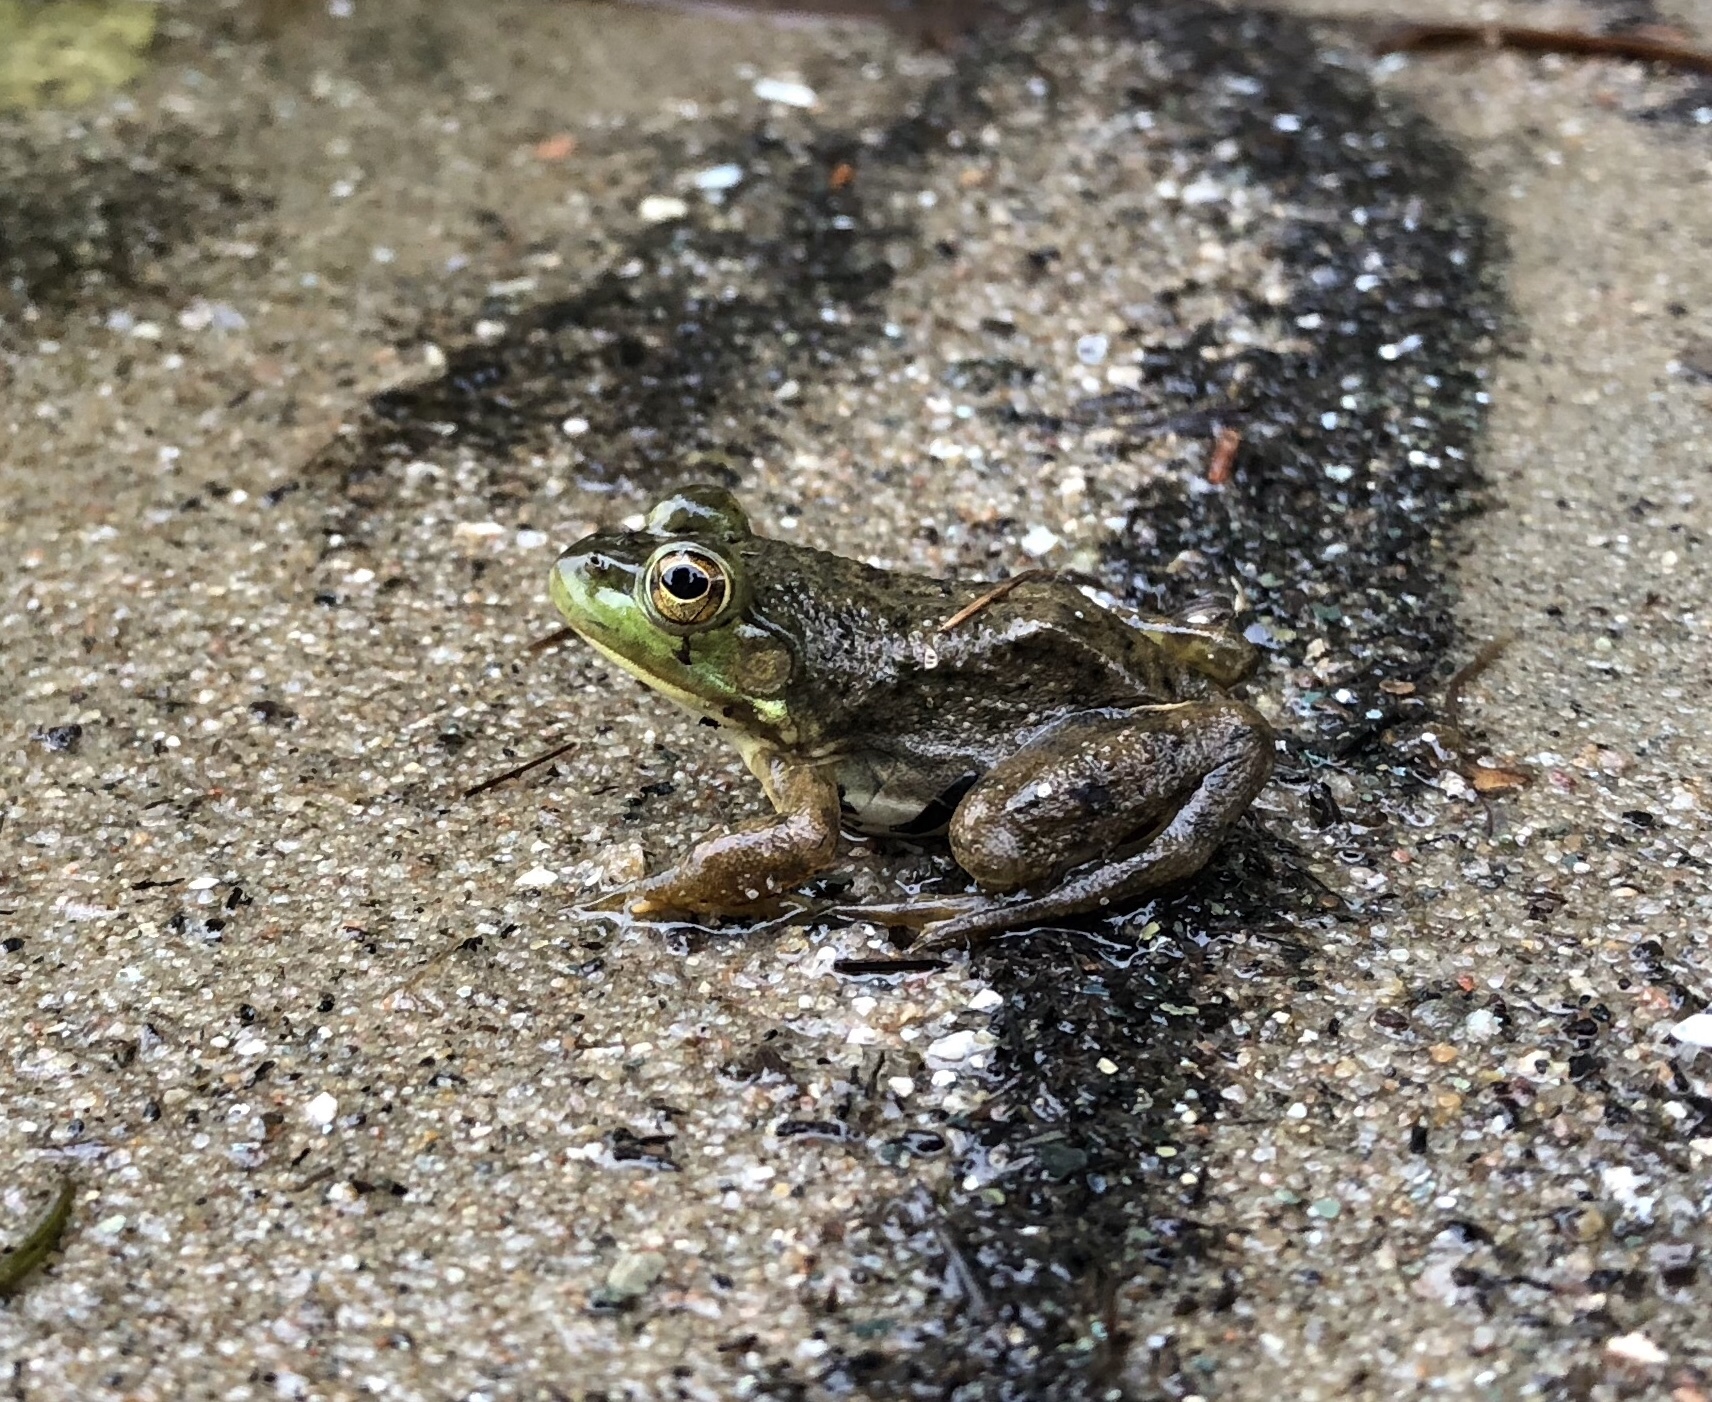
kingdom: Animalia
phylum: Chordata
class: Amphibia
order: Anura
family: Ranidae
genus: Lithobates
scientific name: Lithobates catesbeianus
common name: American bullfrog
